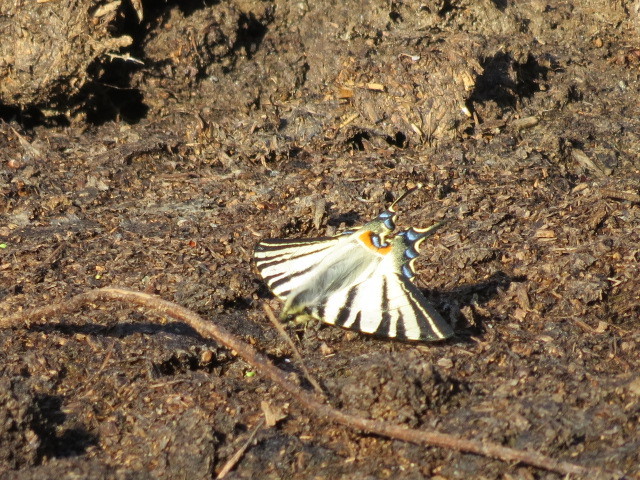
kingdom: Animalia
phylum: Arthropoda
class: Insecta
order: Lepidoptera
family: Papilionidae
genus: Iphiclides
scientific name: Iphiclides podalirius
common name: Scarce swallowtail
